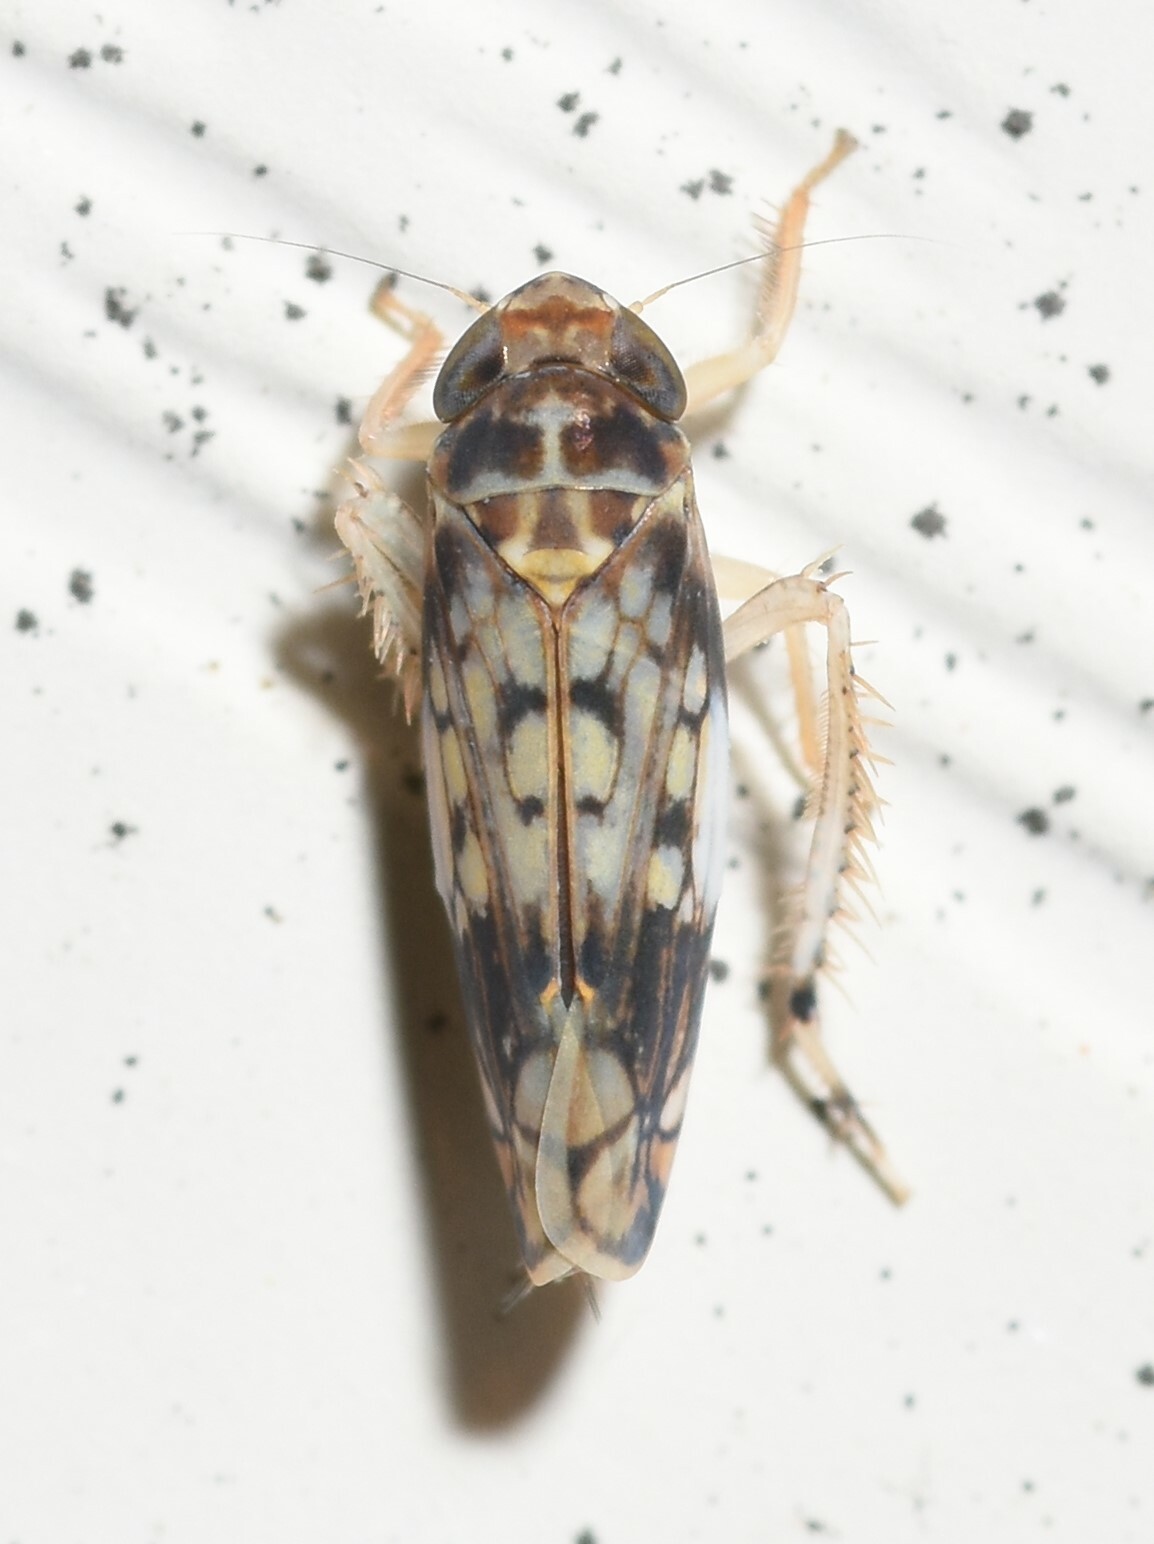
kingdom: Animalia
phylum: Arthropoda
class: Insecta
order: Hemiptera
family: Cicadellidae
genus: Scaphoideus
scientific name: Scaphoideus obtusus
